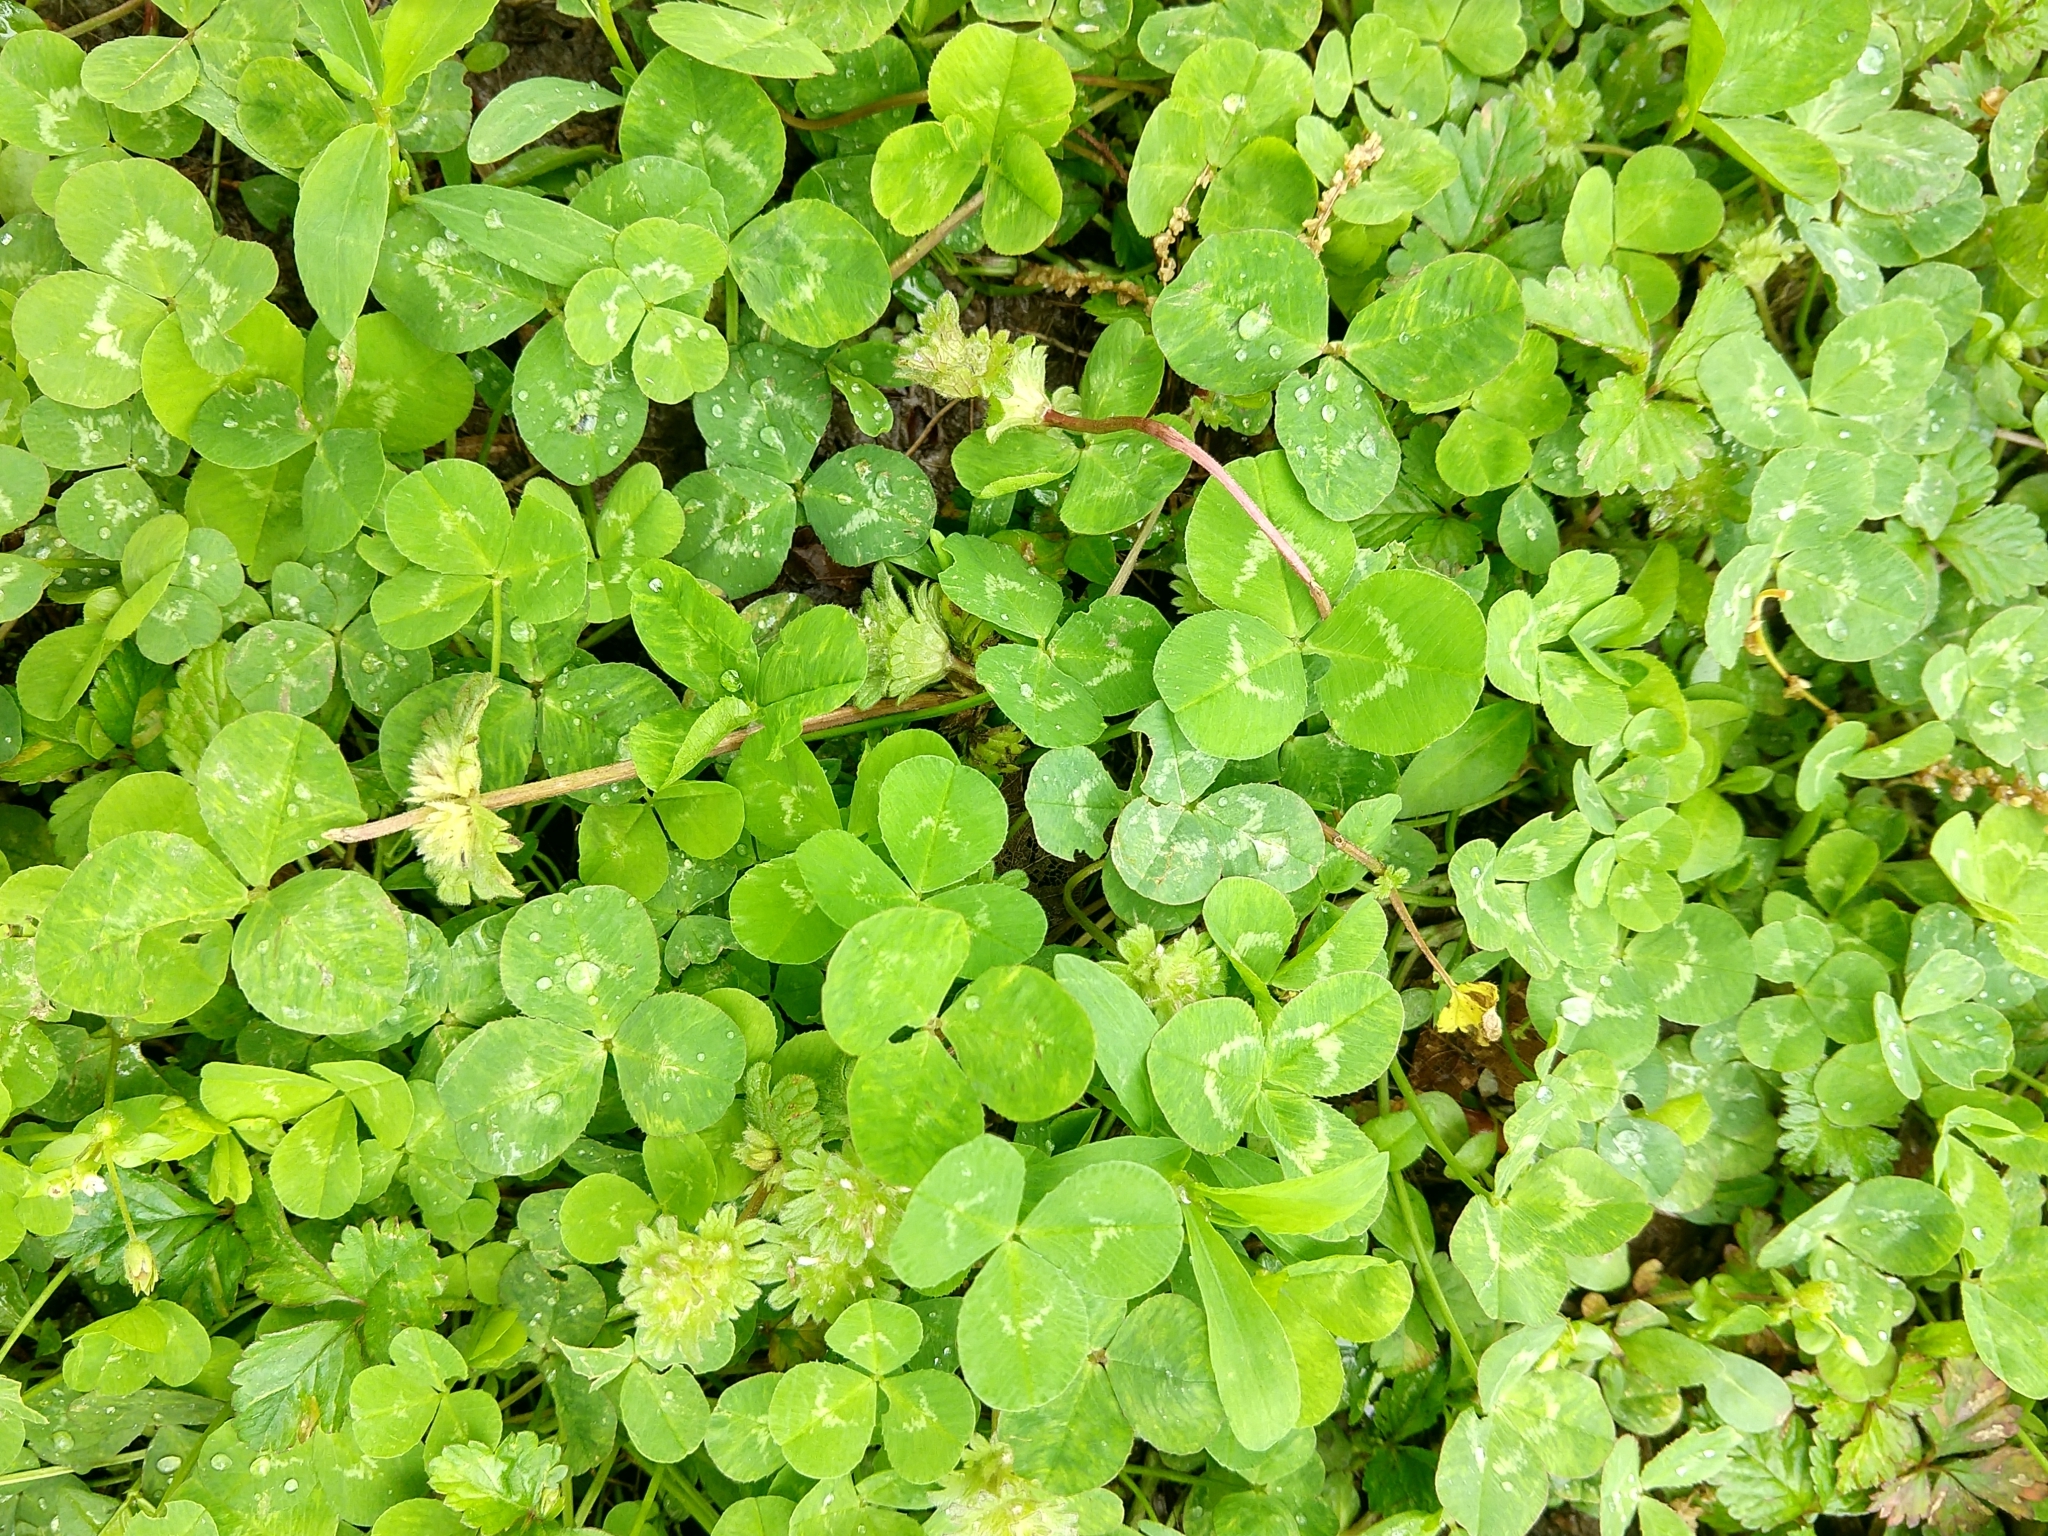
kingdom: Plantae
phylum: Tracheophyta
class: Magnoliopsida
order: Fabales
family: Fabaceae
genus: Trifolium
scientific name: Trifolium repens
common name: White clover
